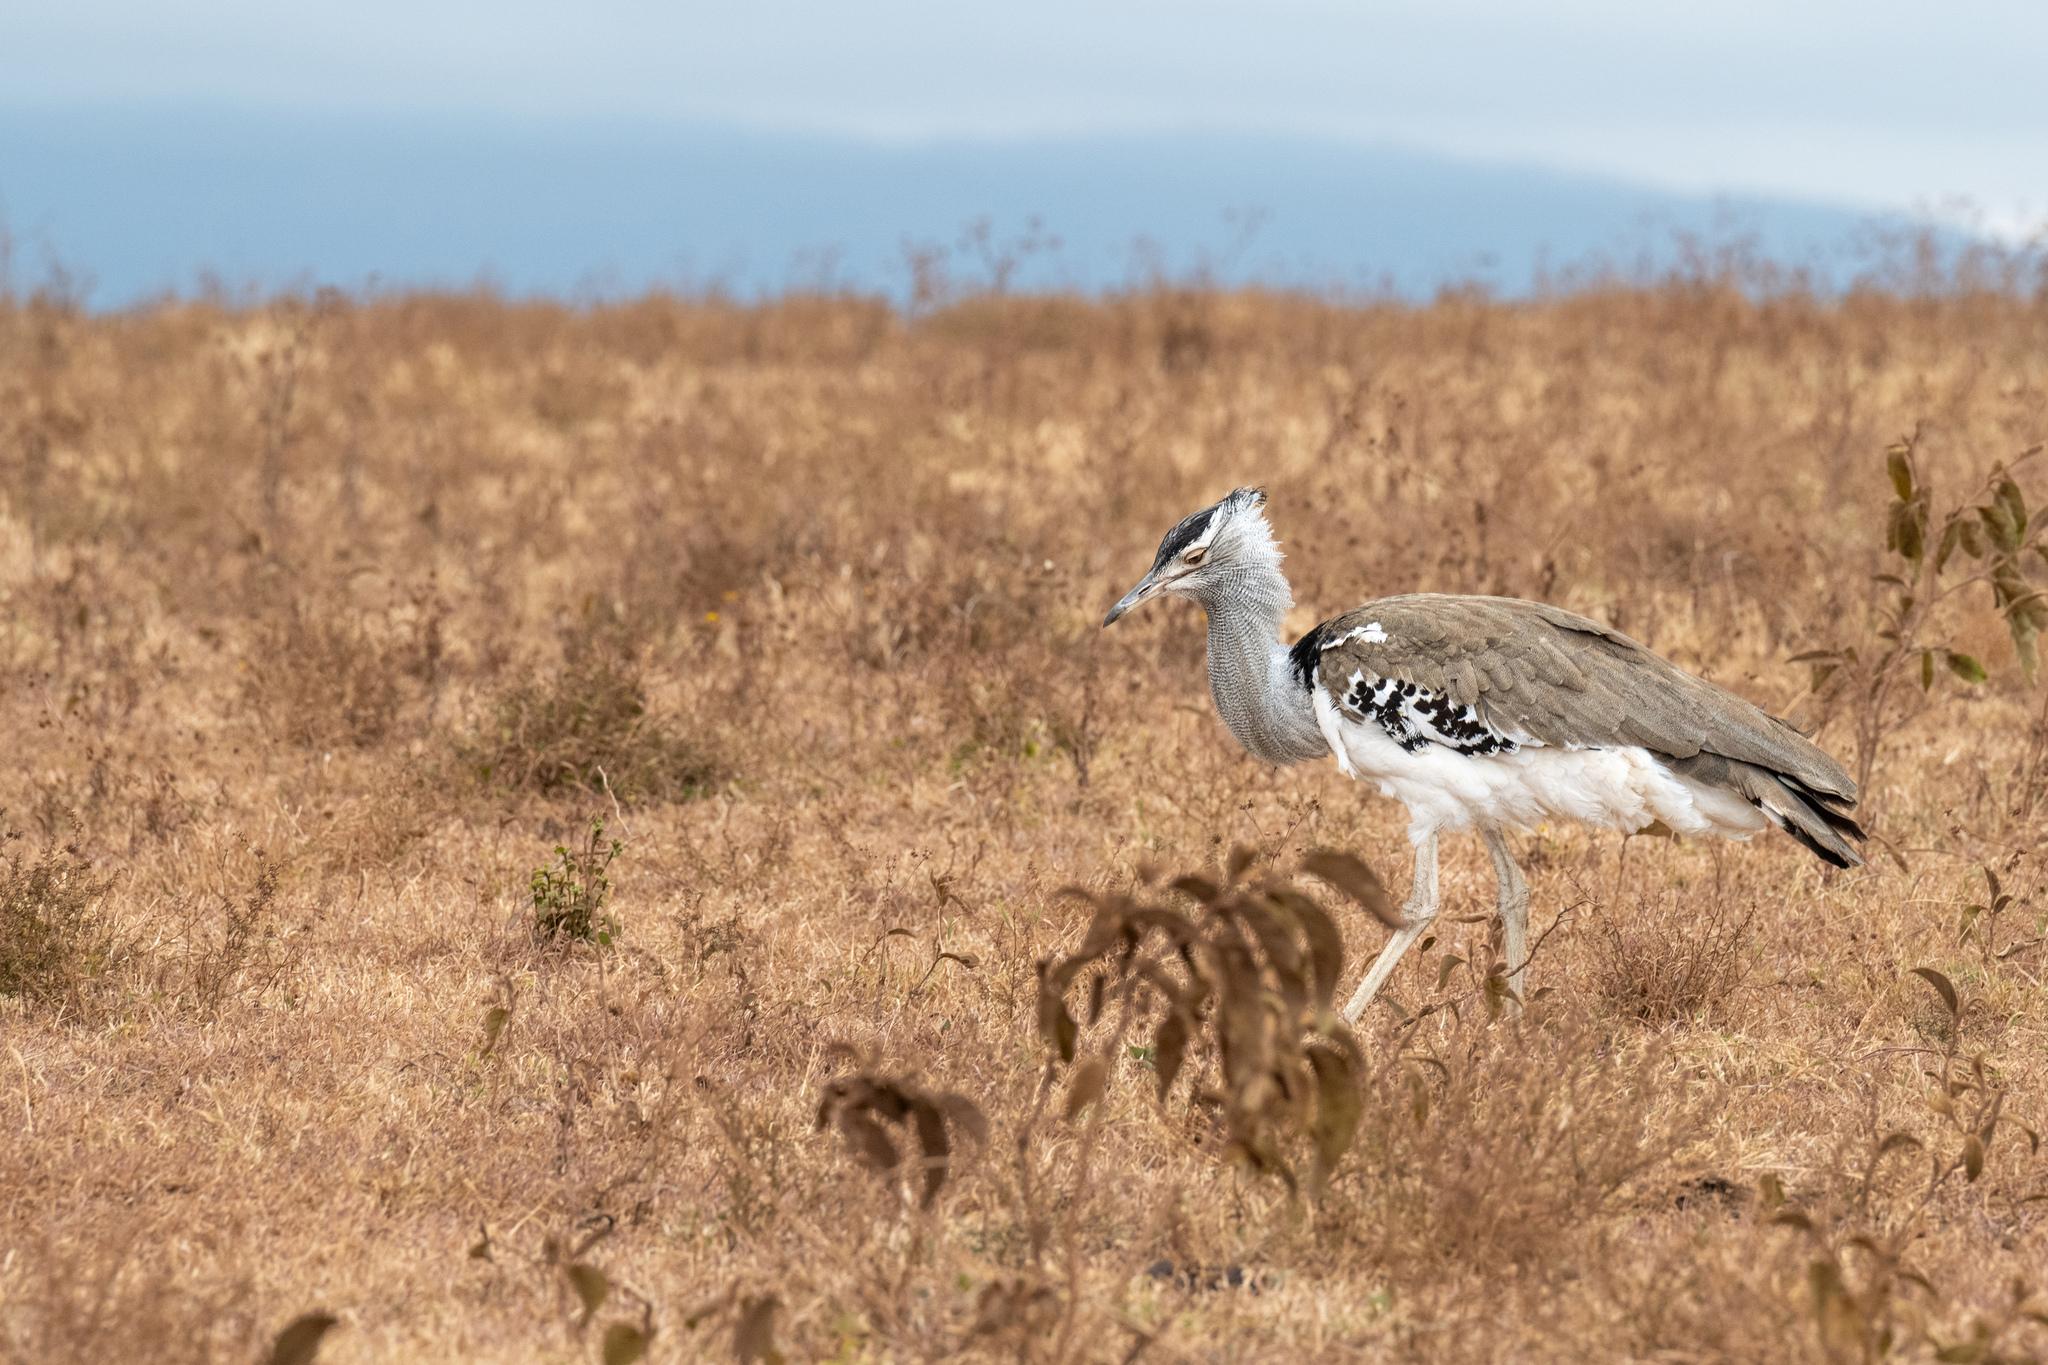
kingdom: Animalia
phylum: Chordata
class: Aves
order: Otidiformes
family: Otididae
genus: Ardeotis
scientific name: Ardeotis kori
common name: Kori bustard
